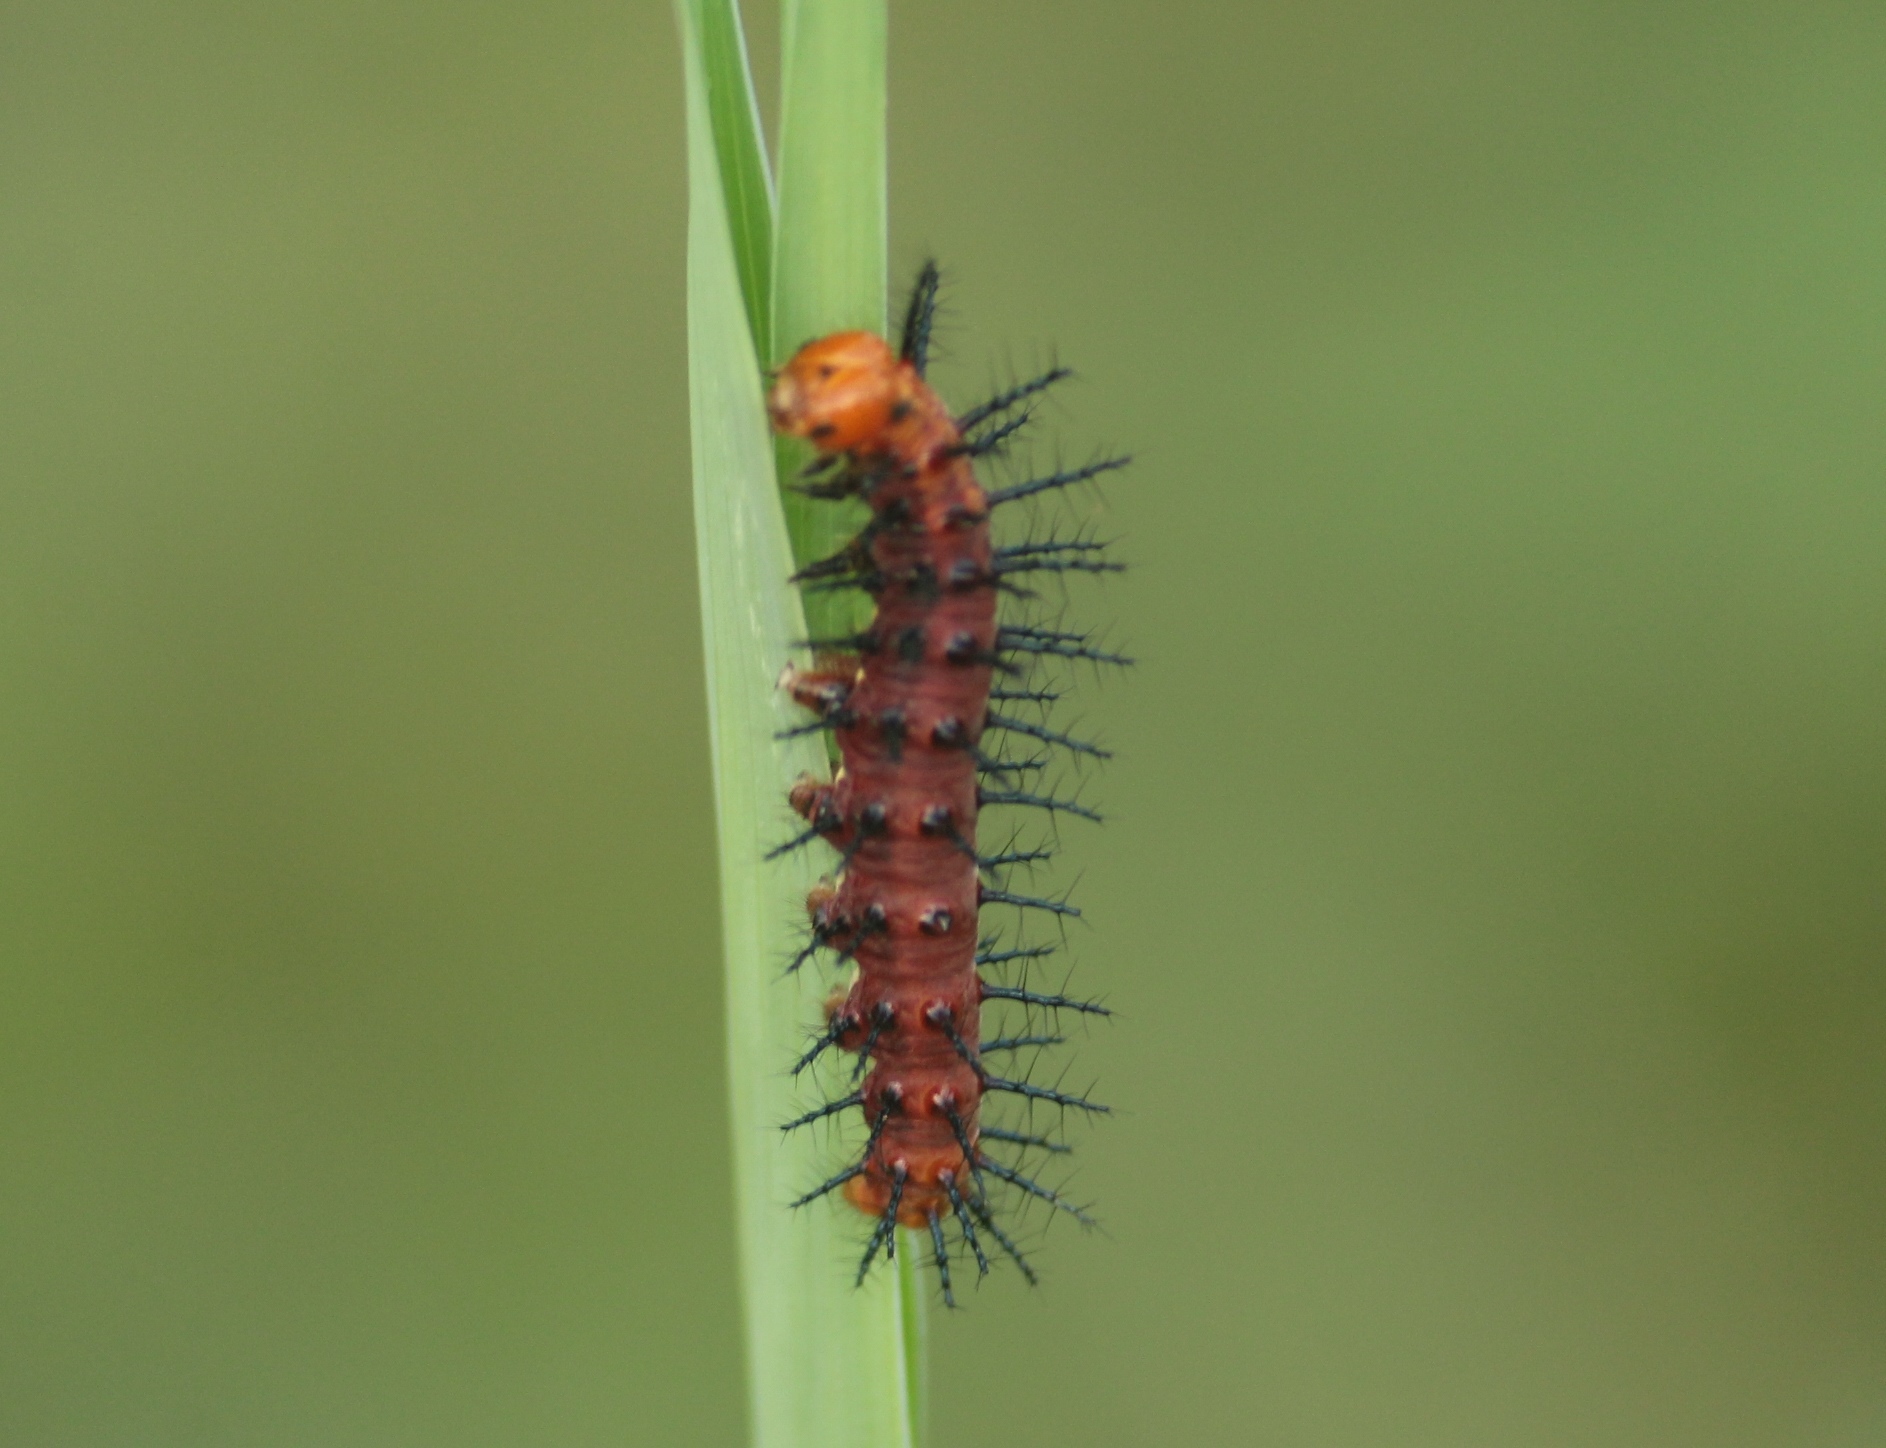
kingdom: Animalia
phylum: Arthropoda
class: Insecta
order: Lepidoptera
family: Nymphalidae
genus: Acraea
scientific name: Acraea terpsicore
